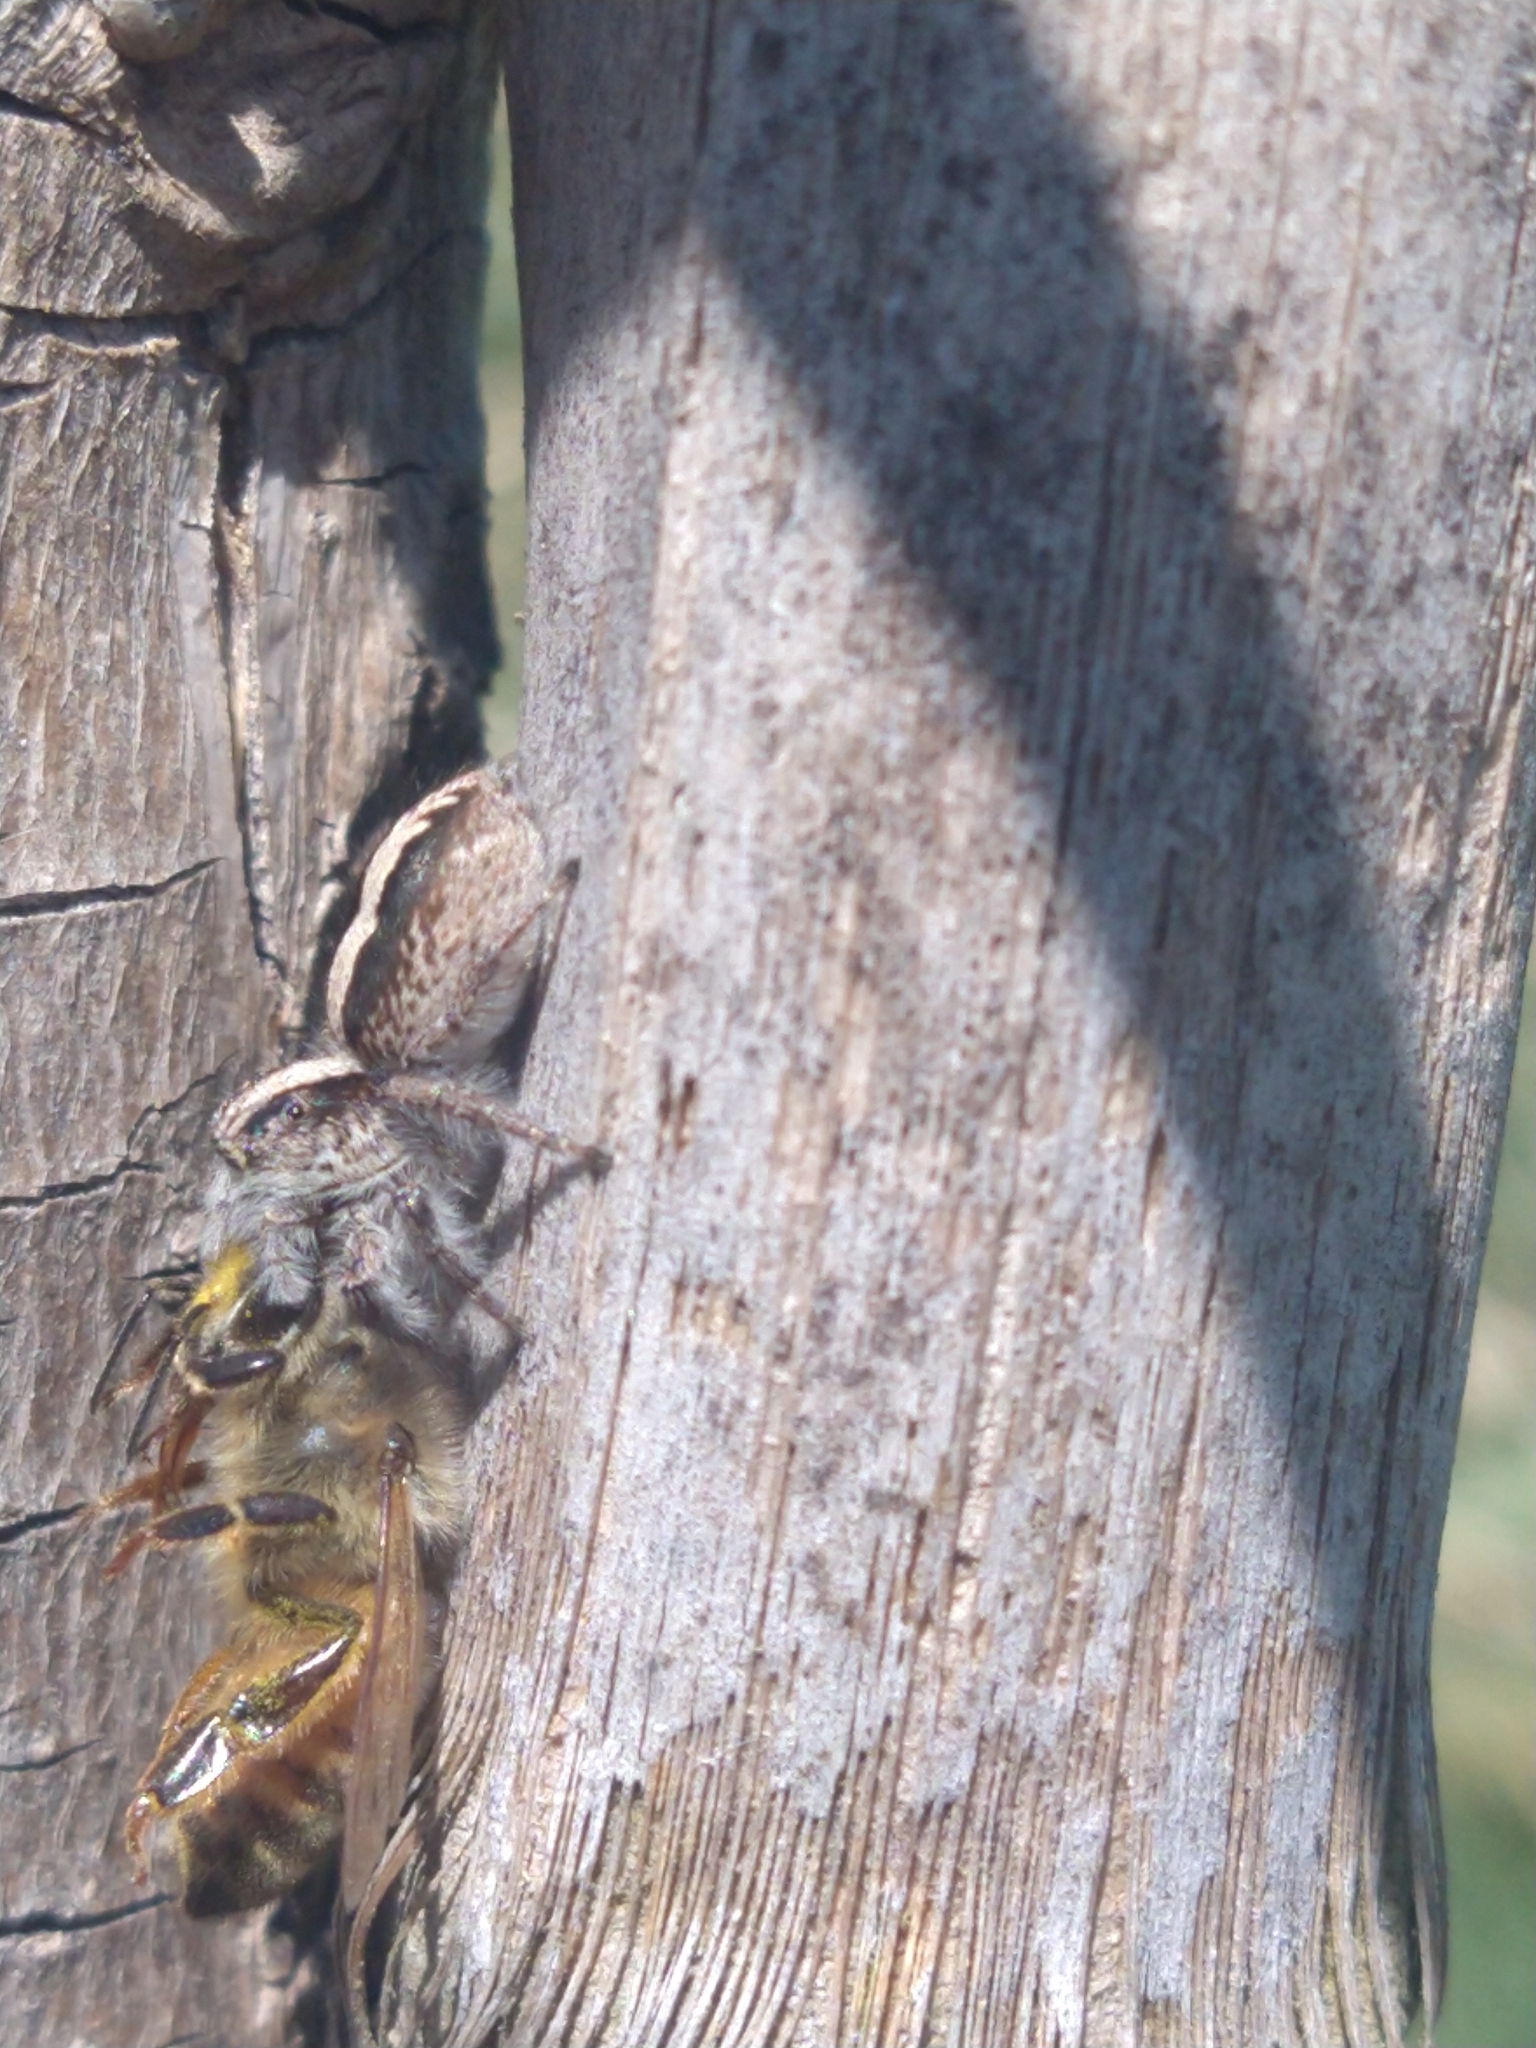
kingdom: Animalia
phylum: Arthropoda
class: Insecta
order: Hymenoptera
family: Apidae
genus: Apis
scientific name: Apis mellifera
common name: Honey bee
